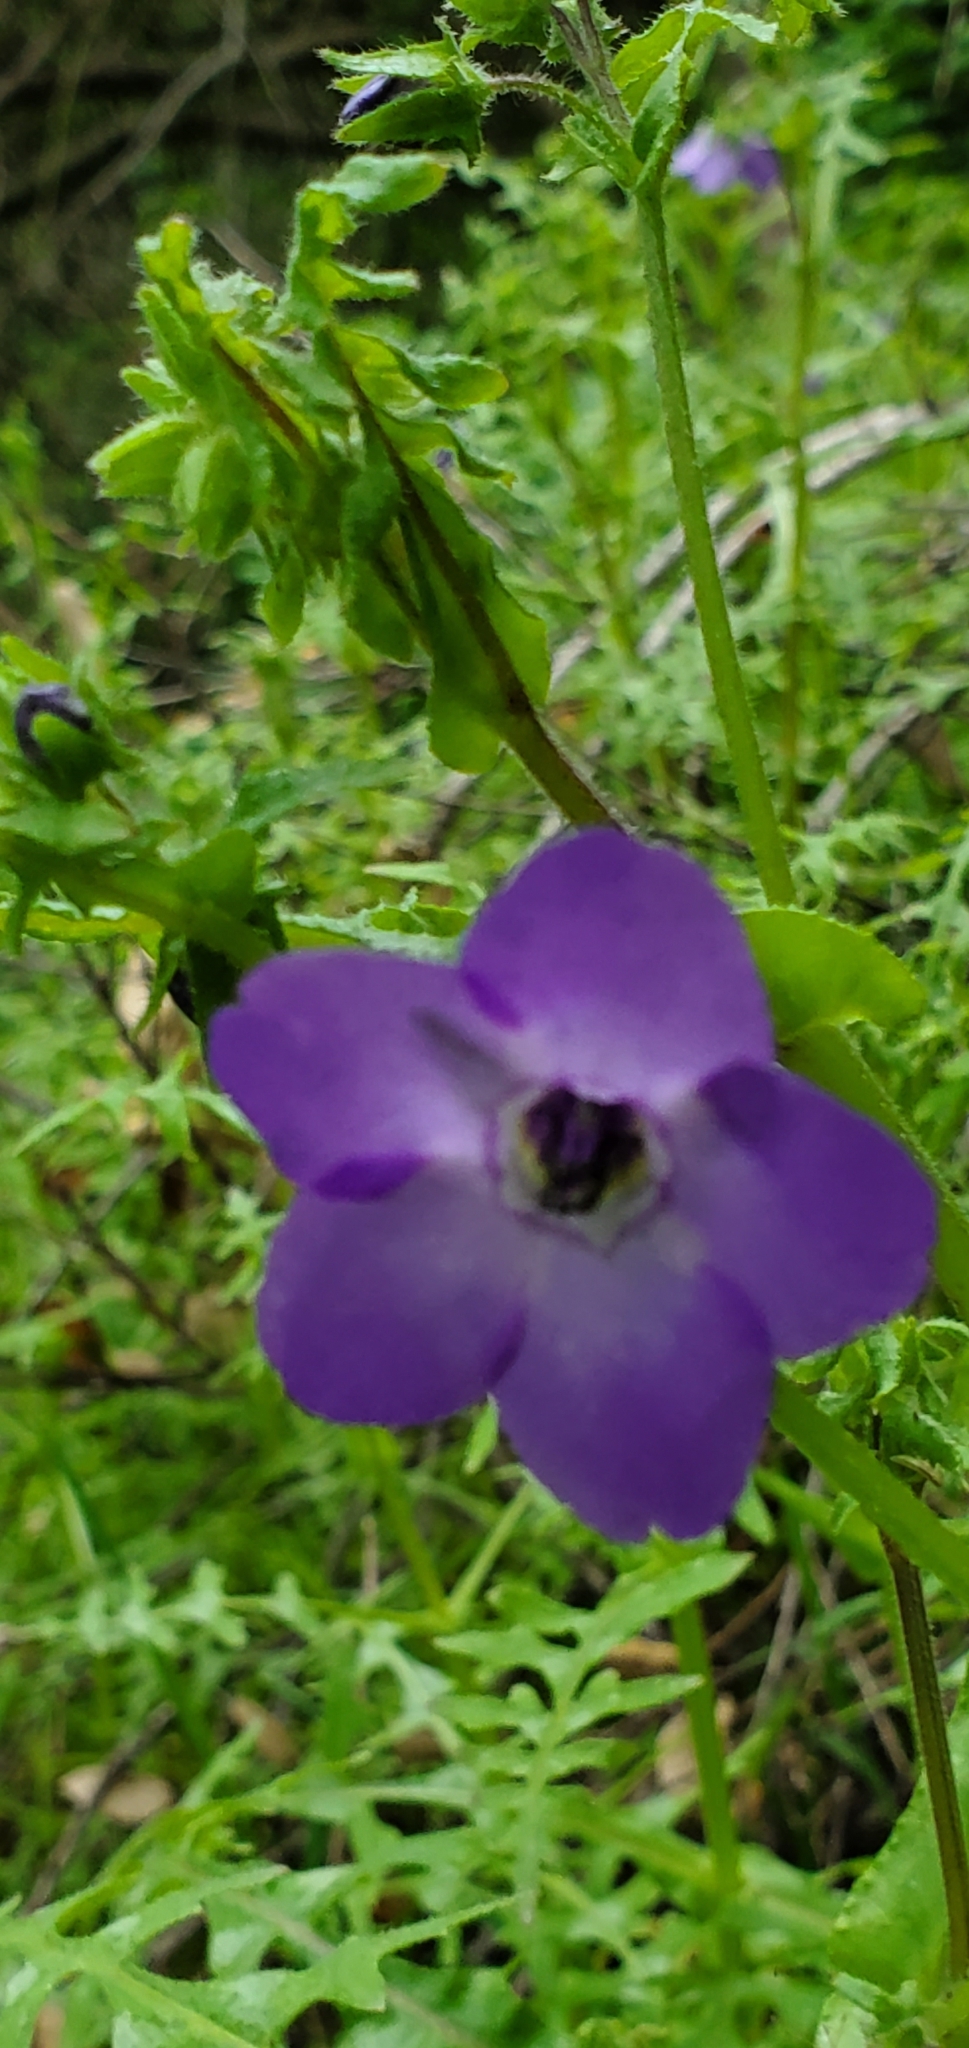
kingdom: Plantae
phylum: Tracheophyta
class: Magnoliopsida
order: Boraginales
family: Hydrophyllaceae
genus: Pholistoma
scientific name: Pholistoma auritum
